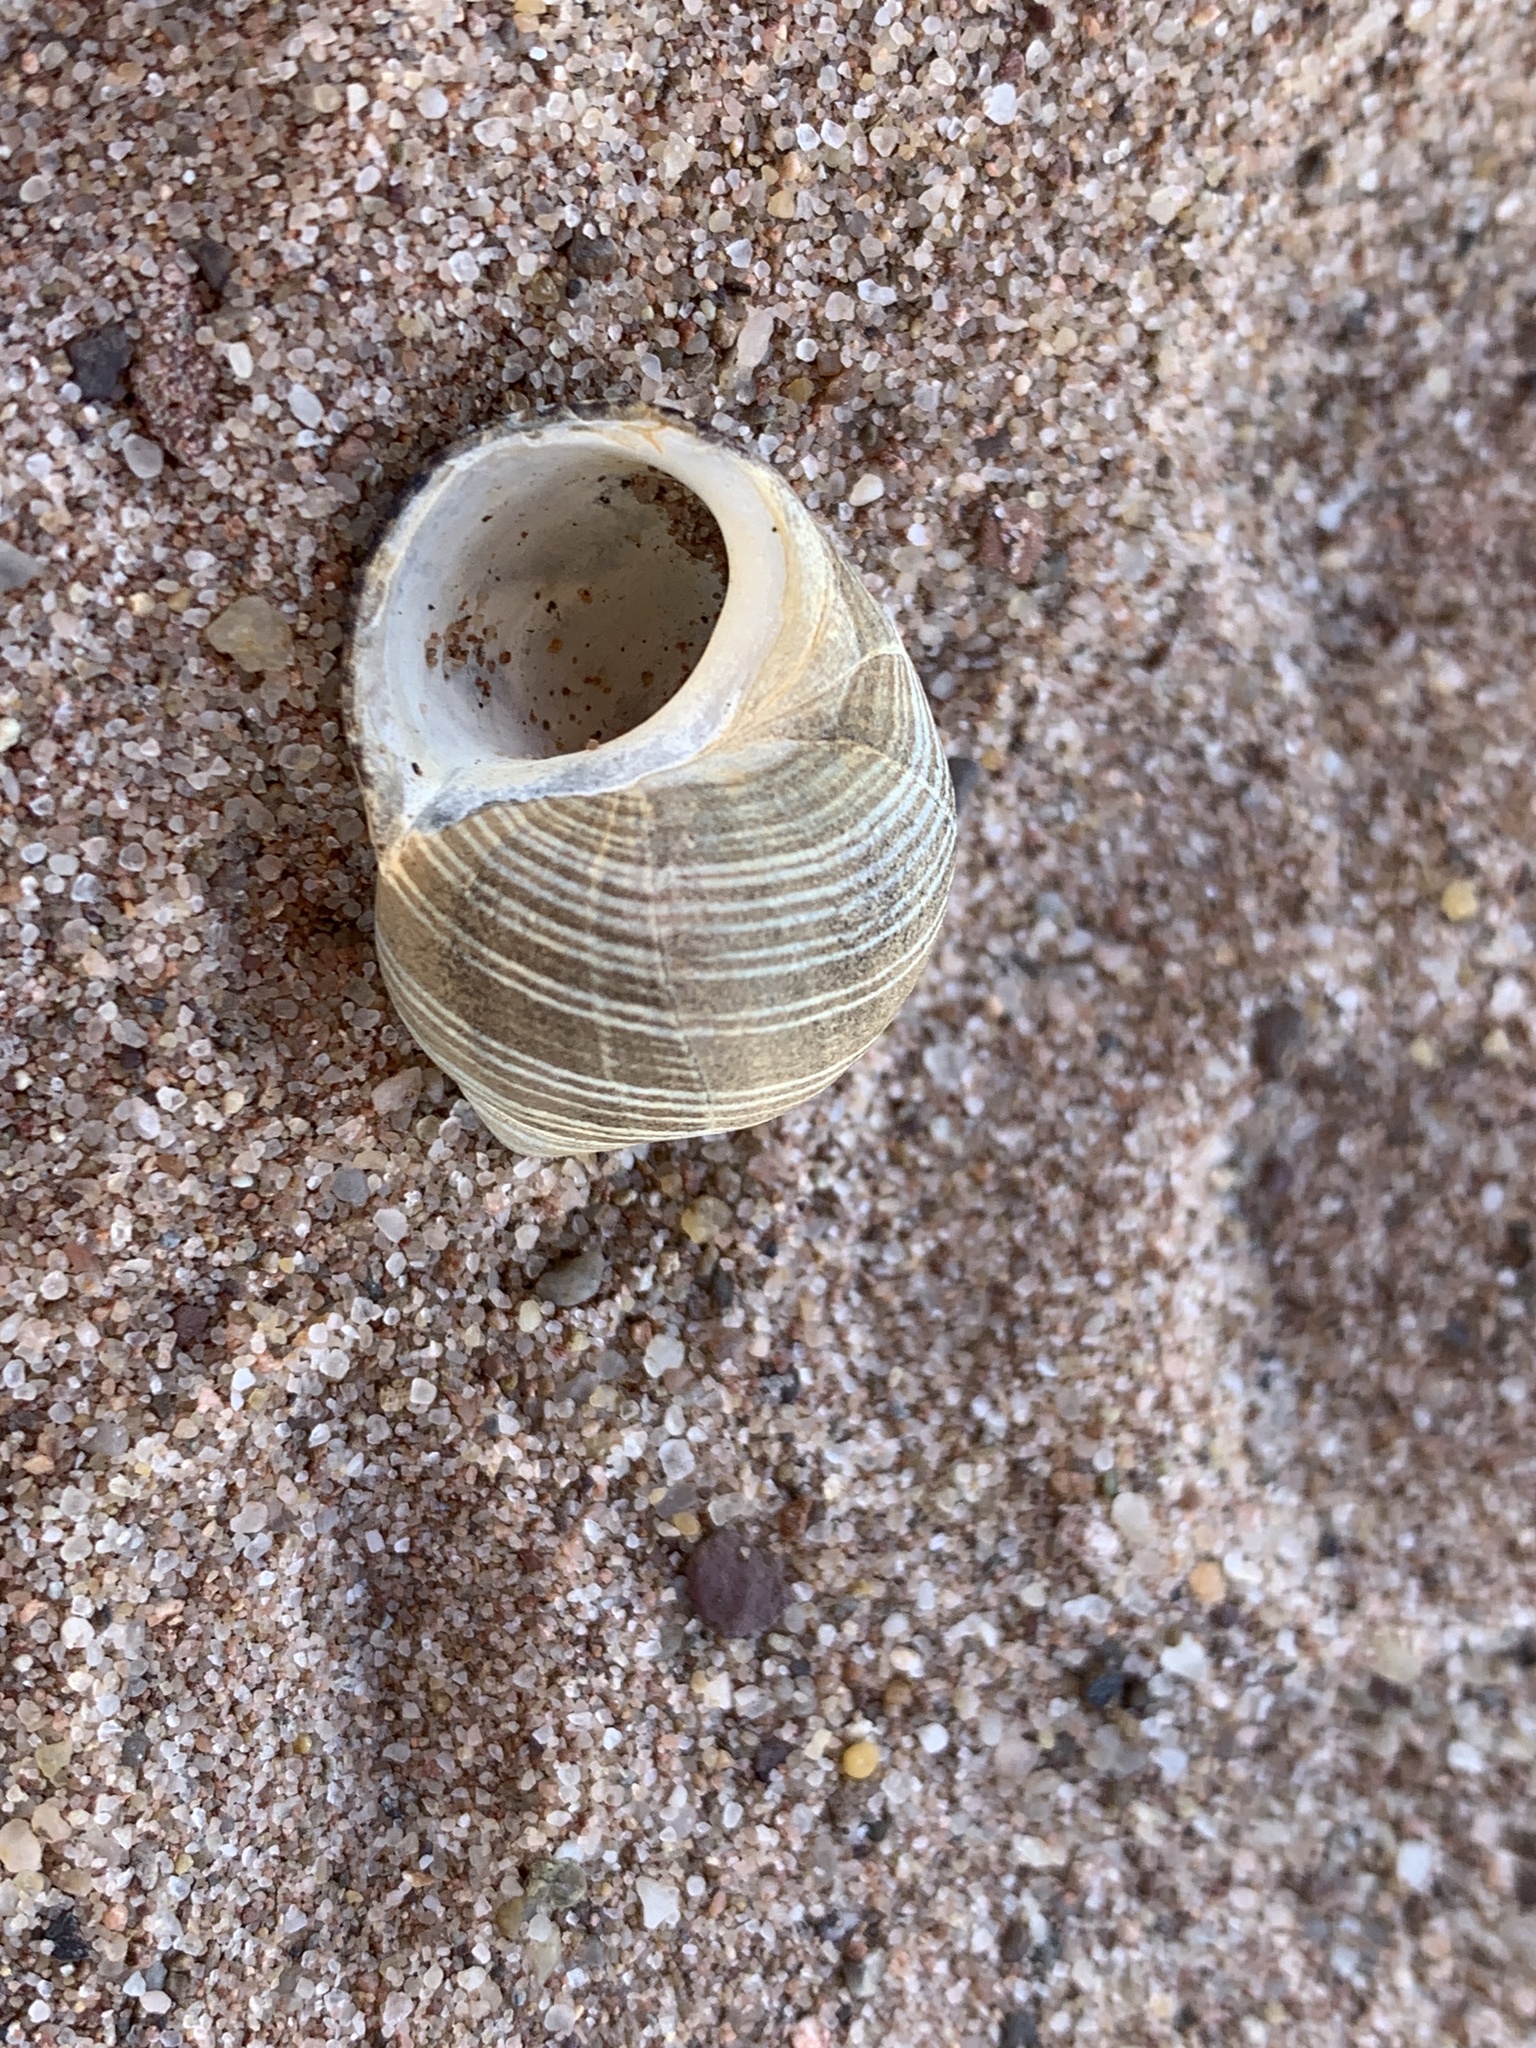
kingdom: Animalia
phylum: Mollusca
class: Gastropoda
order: Littorinimorpha
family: Littorinidae
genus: Littorina
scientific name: Littorina littorea
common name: Common periwinkle
